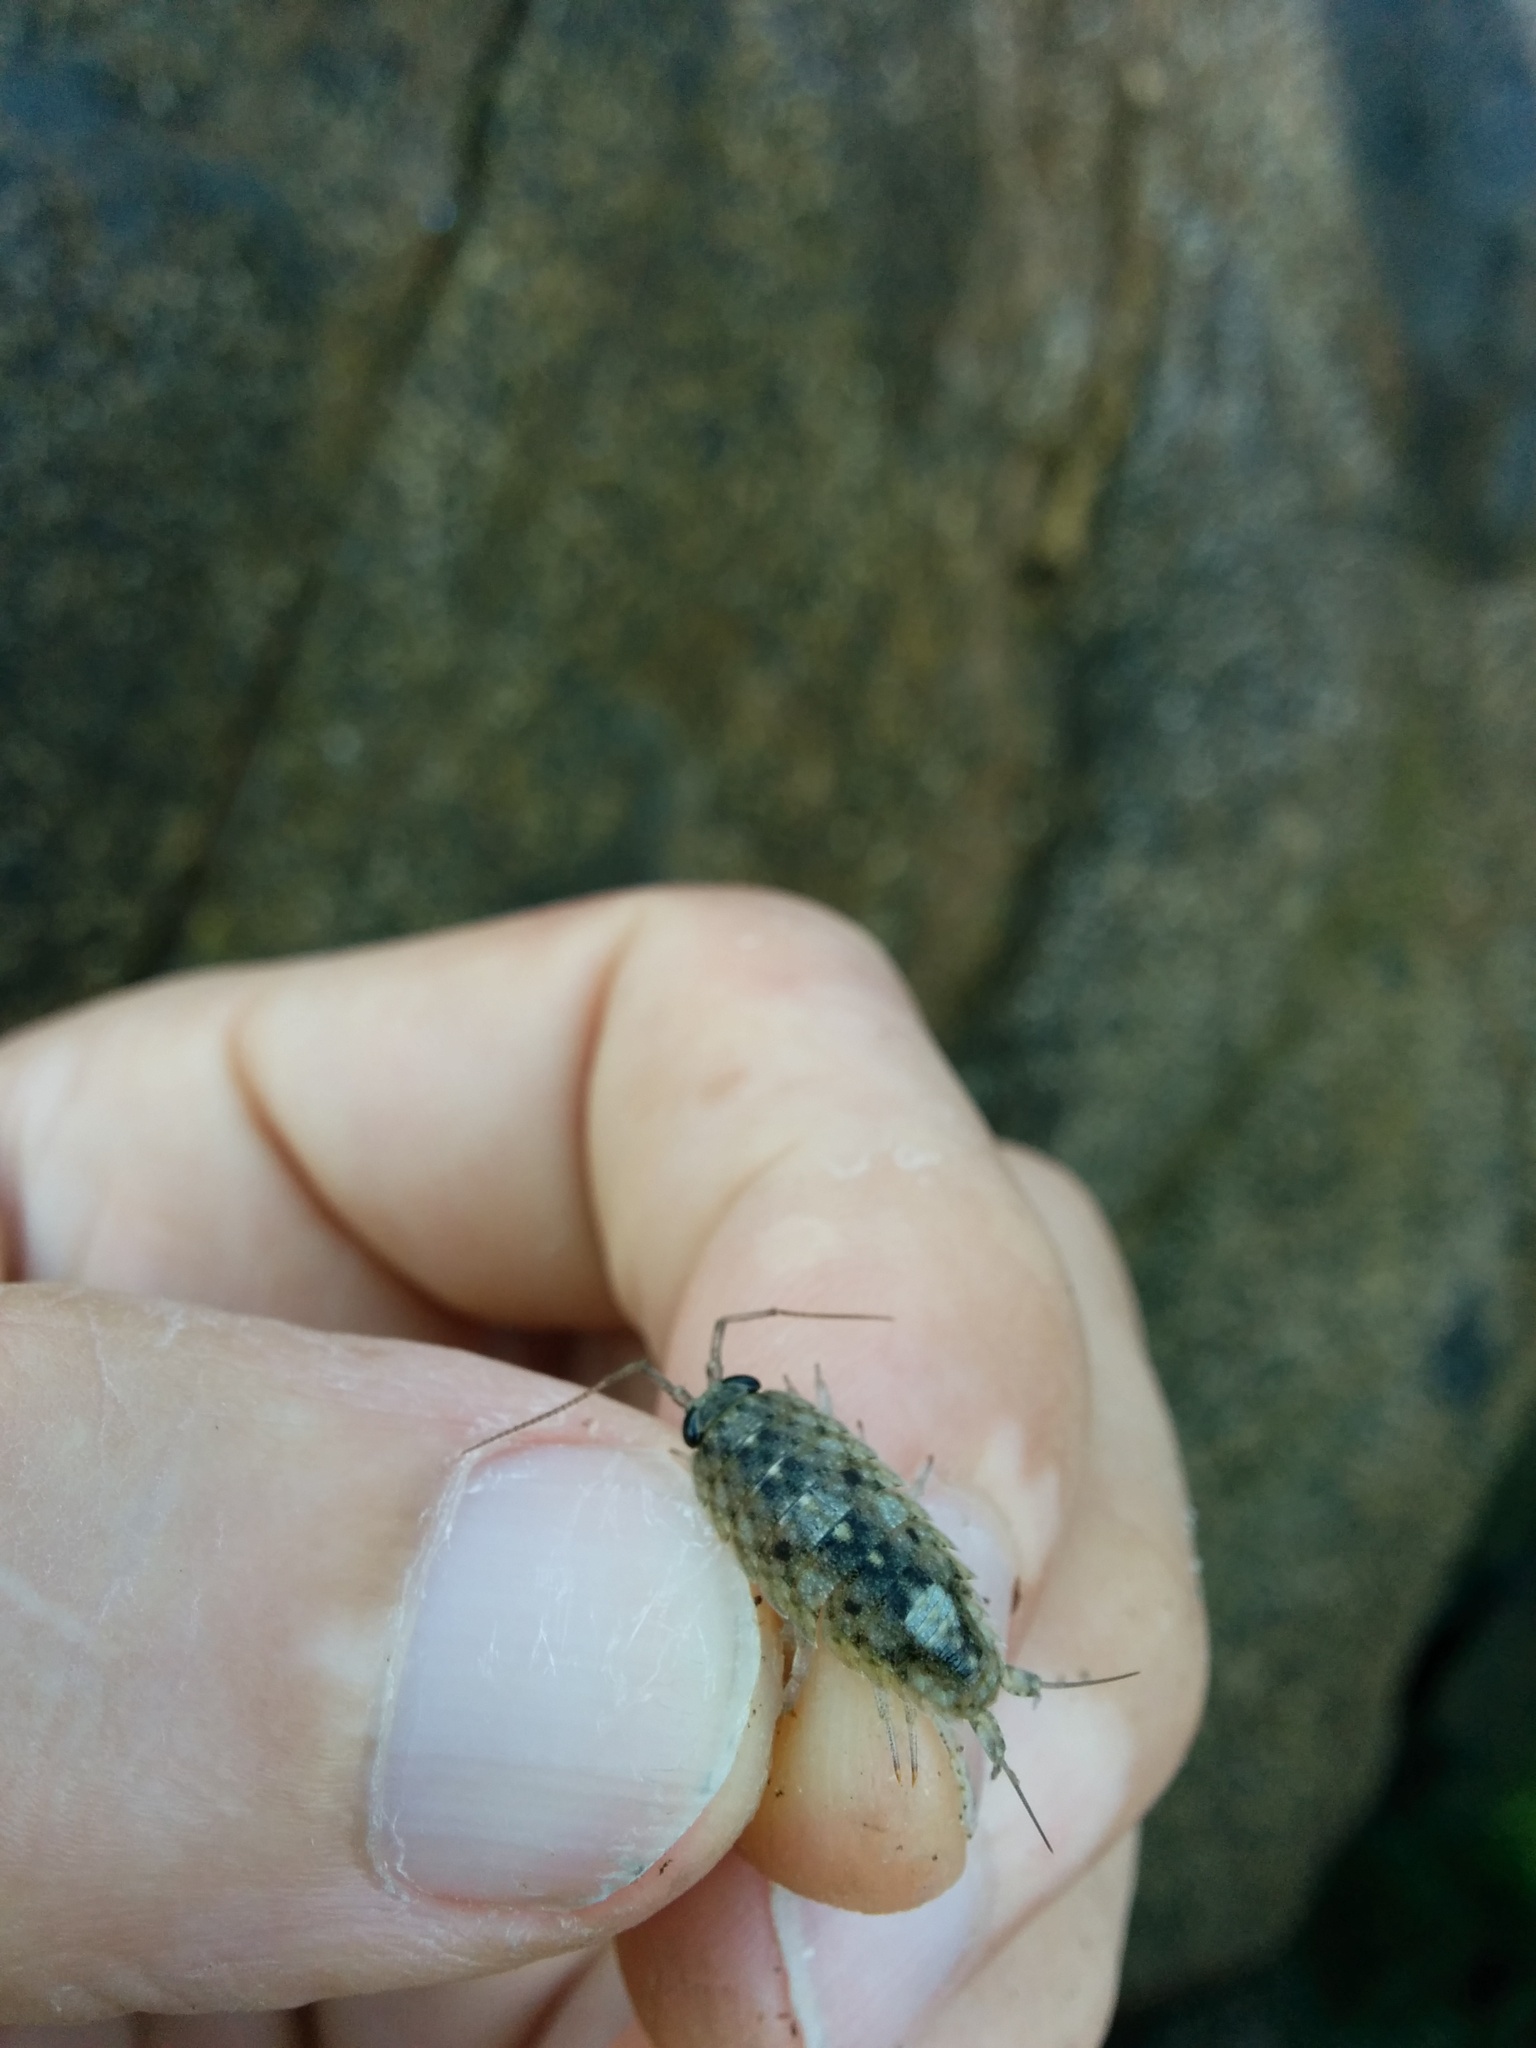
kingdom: Animalia
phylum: Arthropoda
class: Malacostraca
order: Isopoda
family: Ligiidae
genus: Ligia
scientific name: Ligia occidentalis
